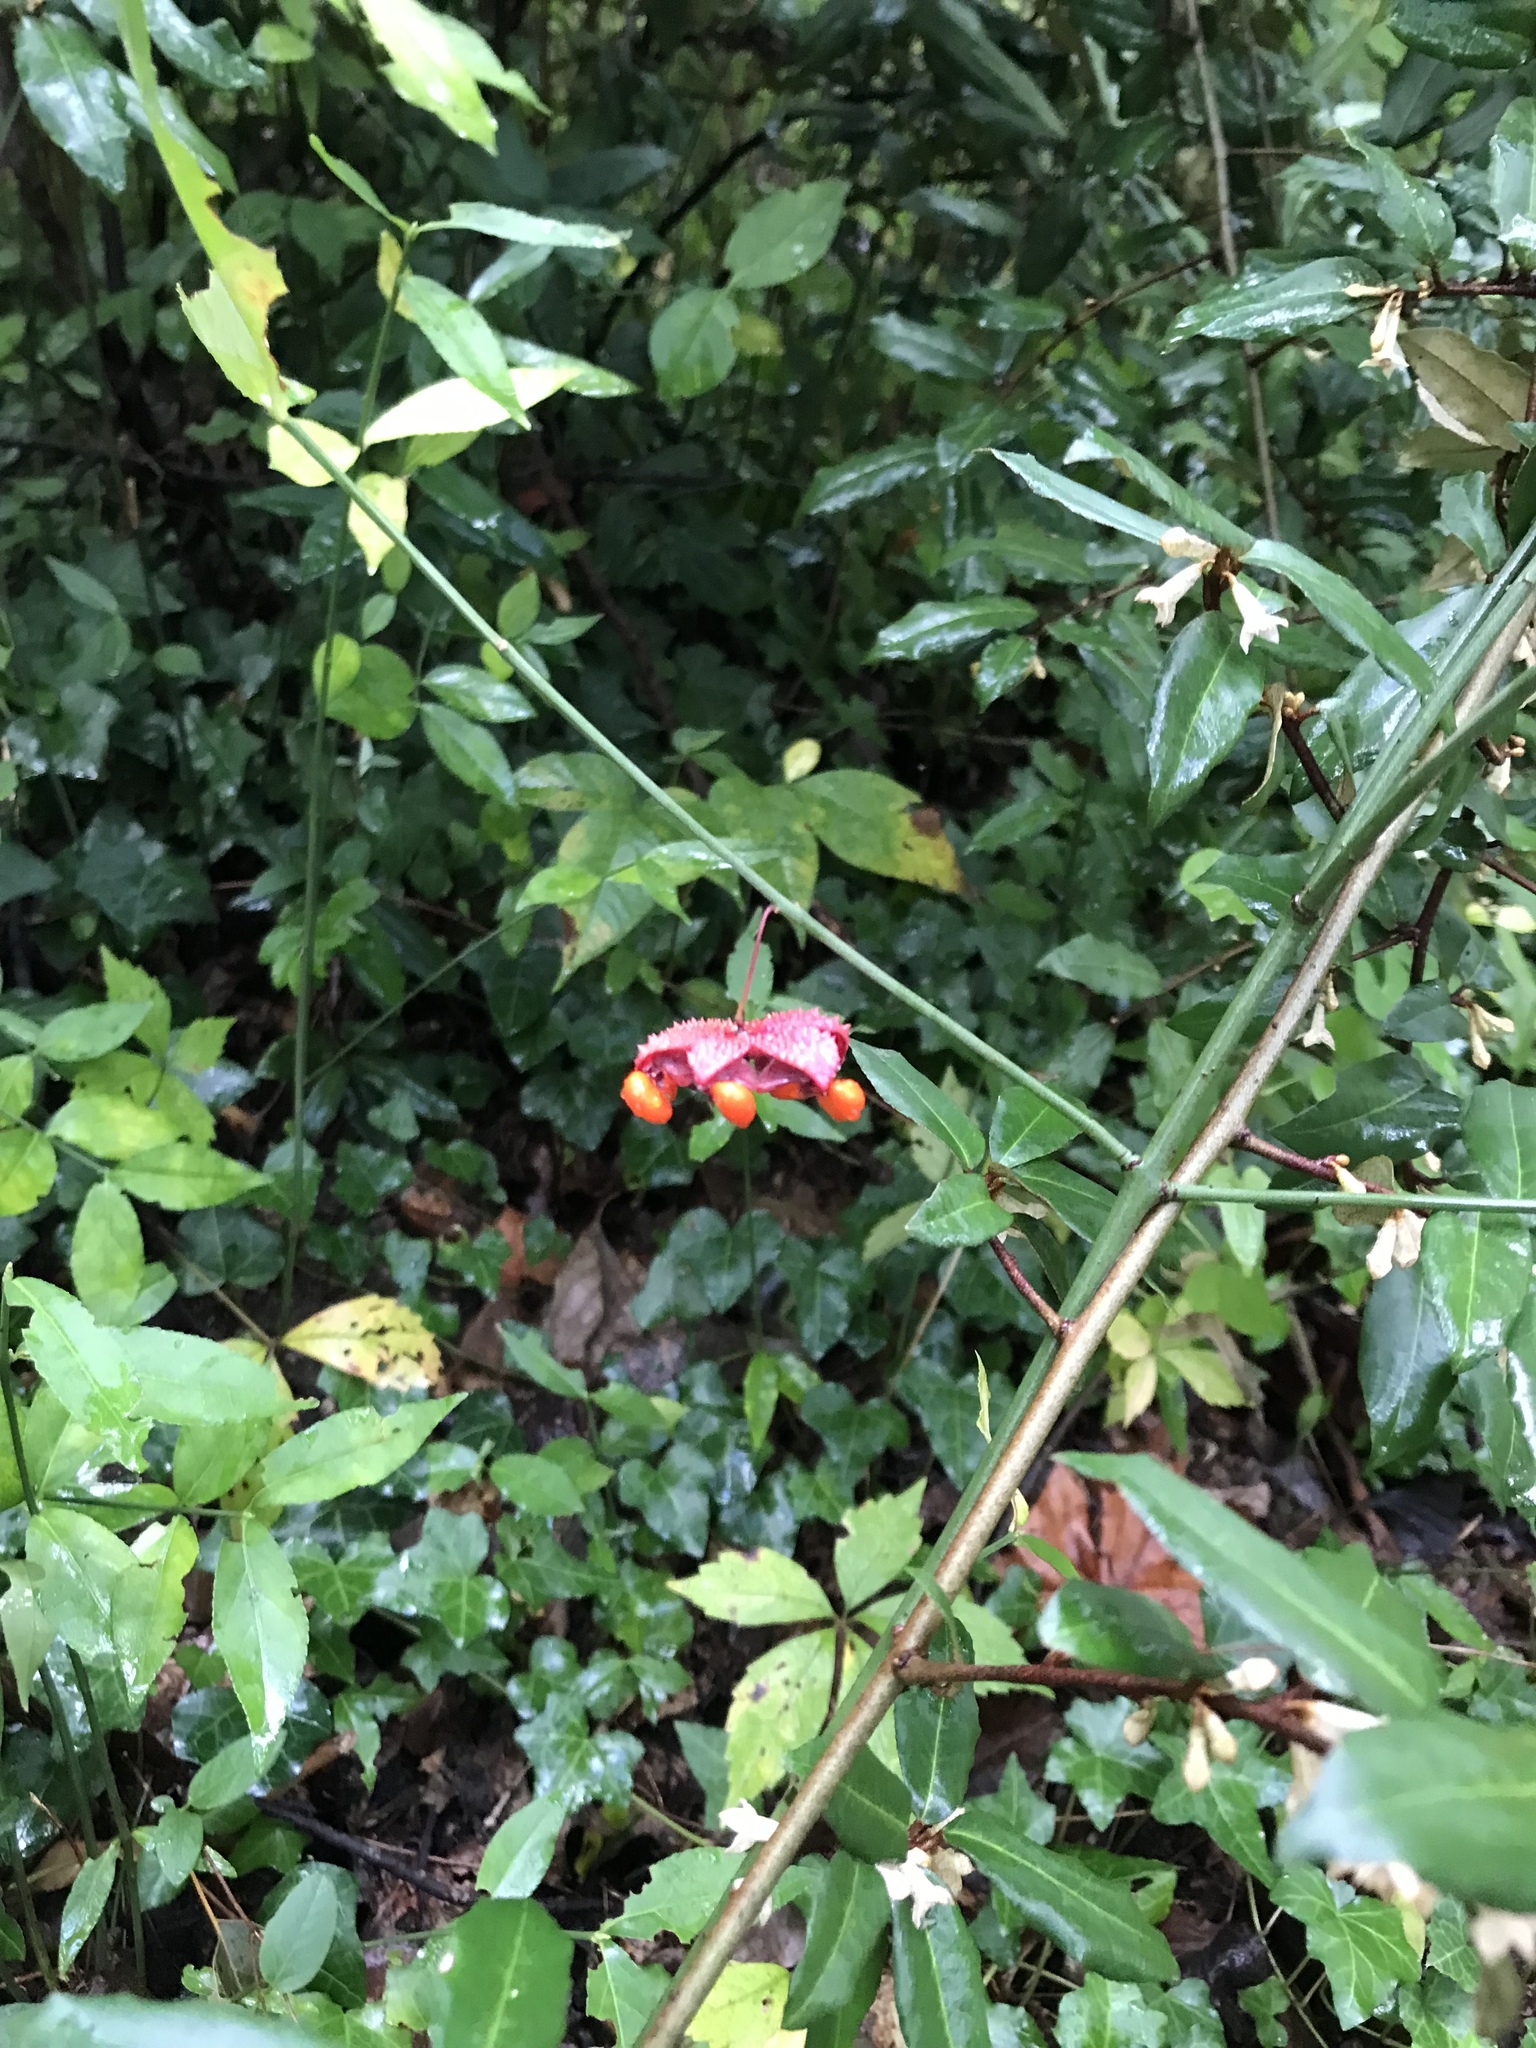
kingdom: Plantae
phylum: Tracheophyta
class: Magnoliopsida
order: Celastrales
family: Celastraceae
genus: Euonymus
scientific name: Euonymus americanus
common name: Bursting-heart
